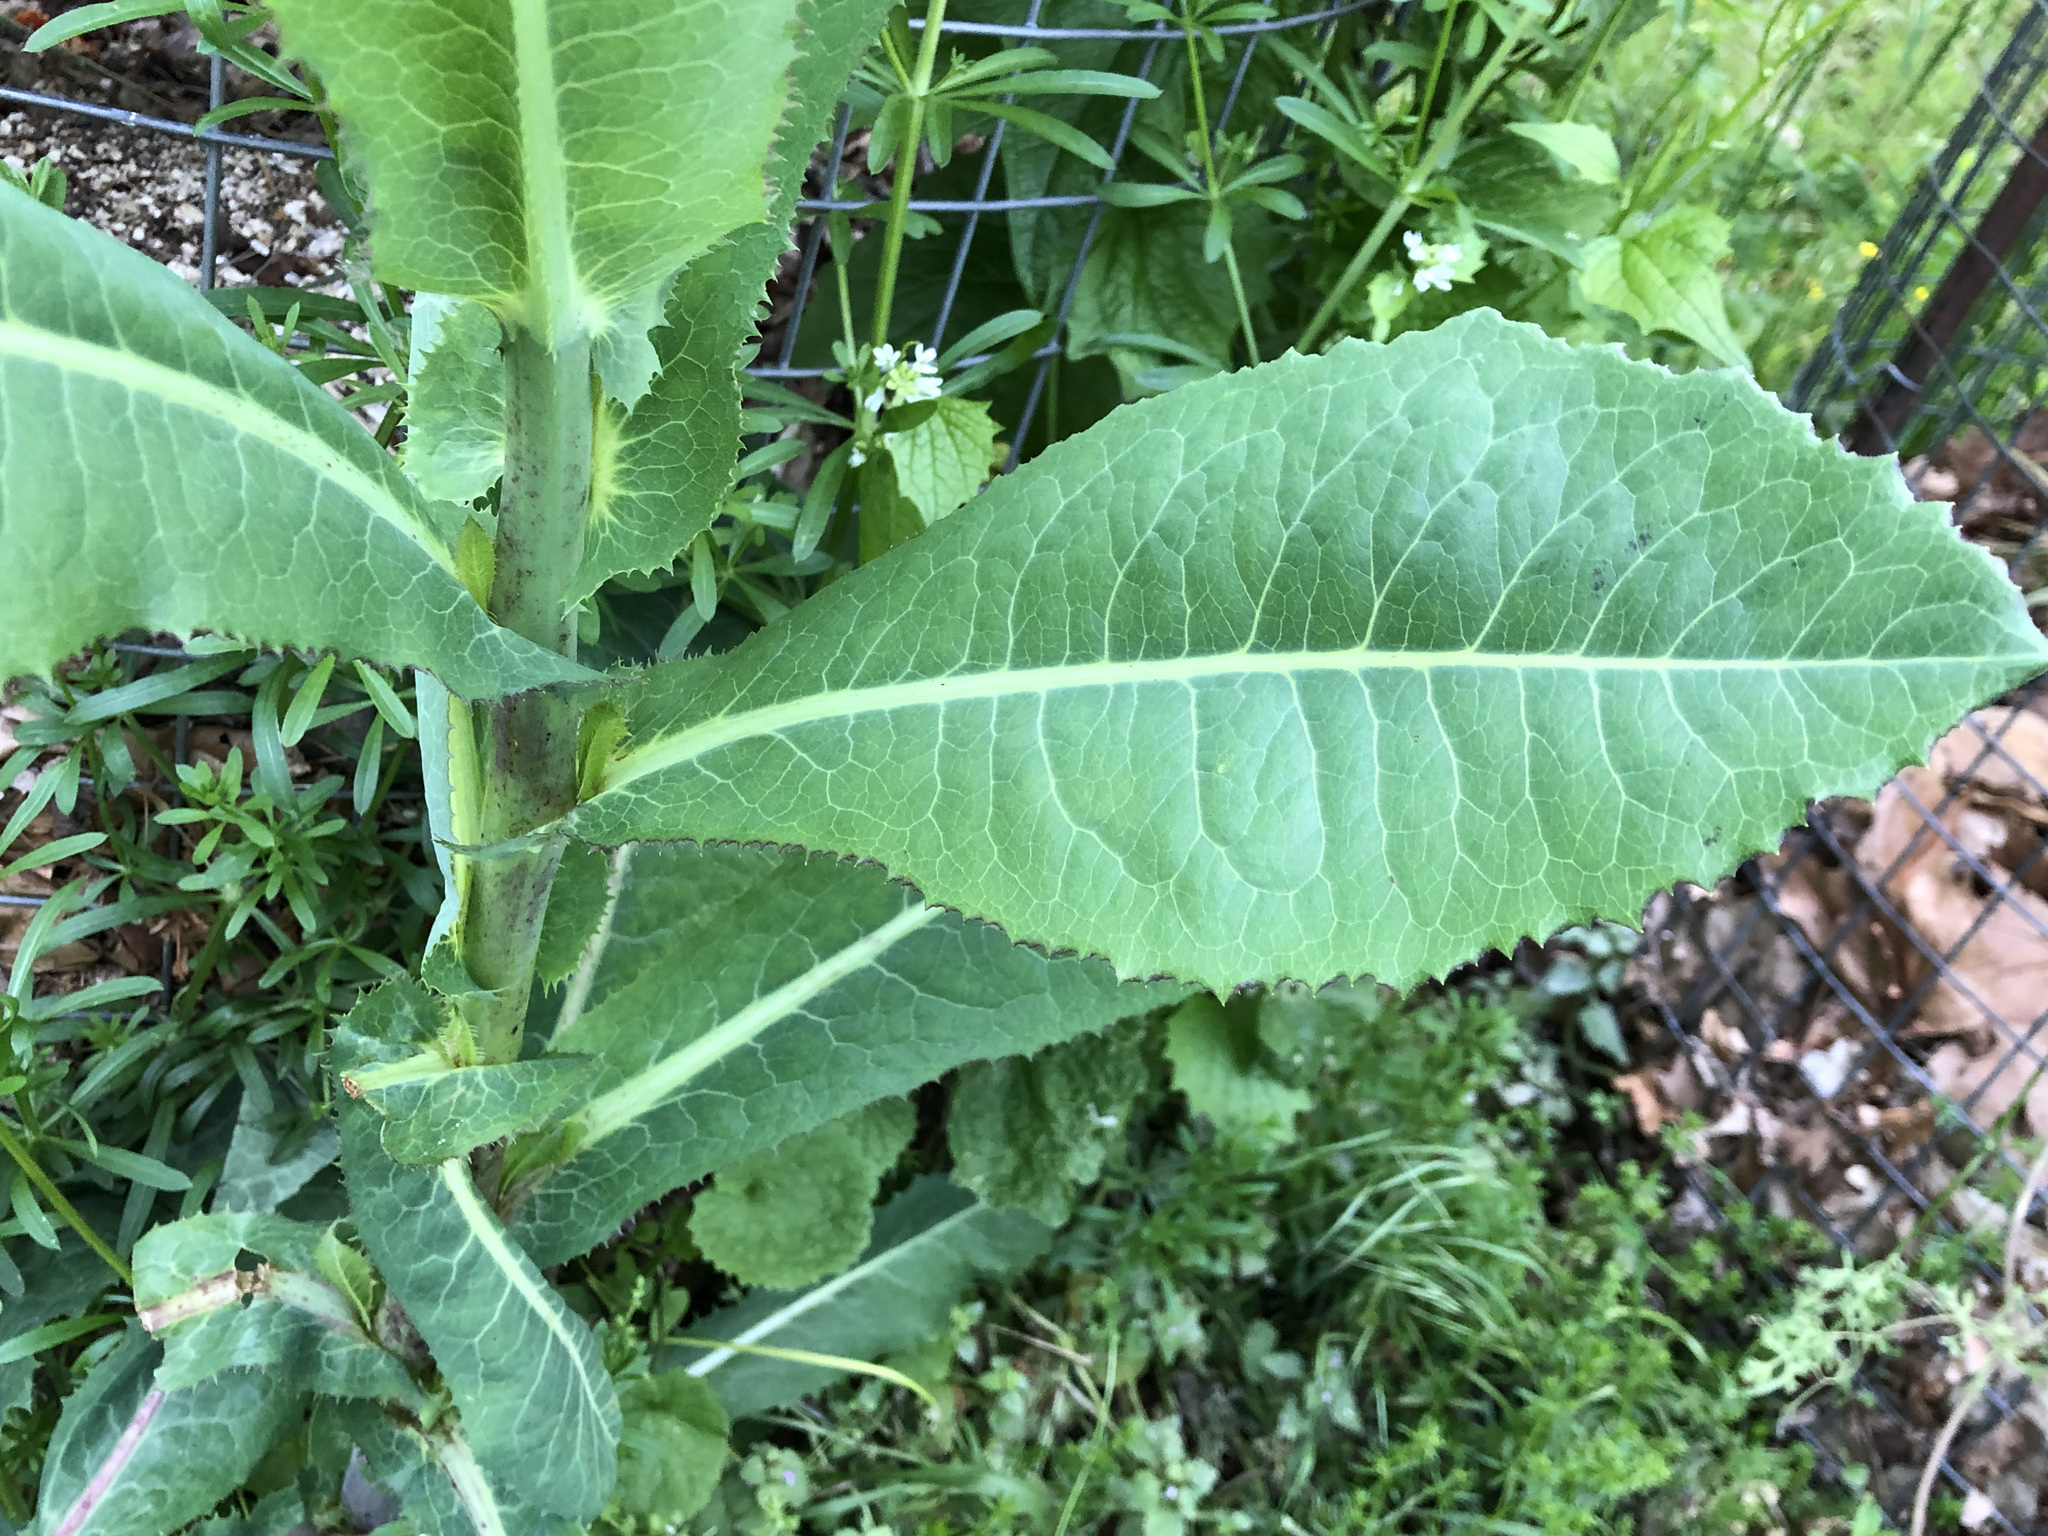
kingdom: Plantae
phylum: Tracheophyta
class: Magnoliopsida
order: Asterales
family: Asteraceae
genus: Lactuca
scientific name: Lactuca serriola
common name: Prickly lettuce
